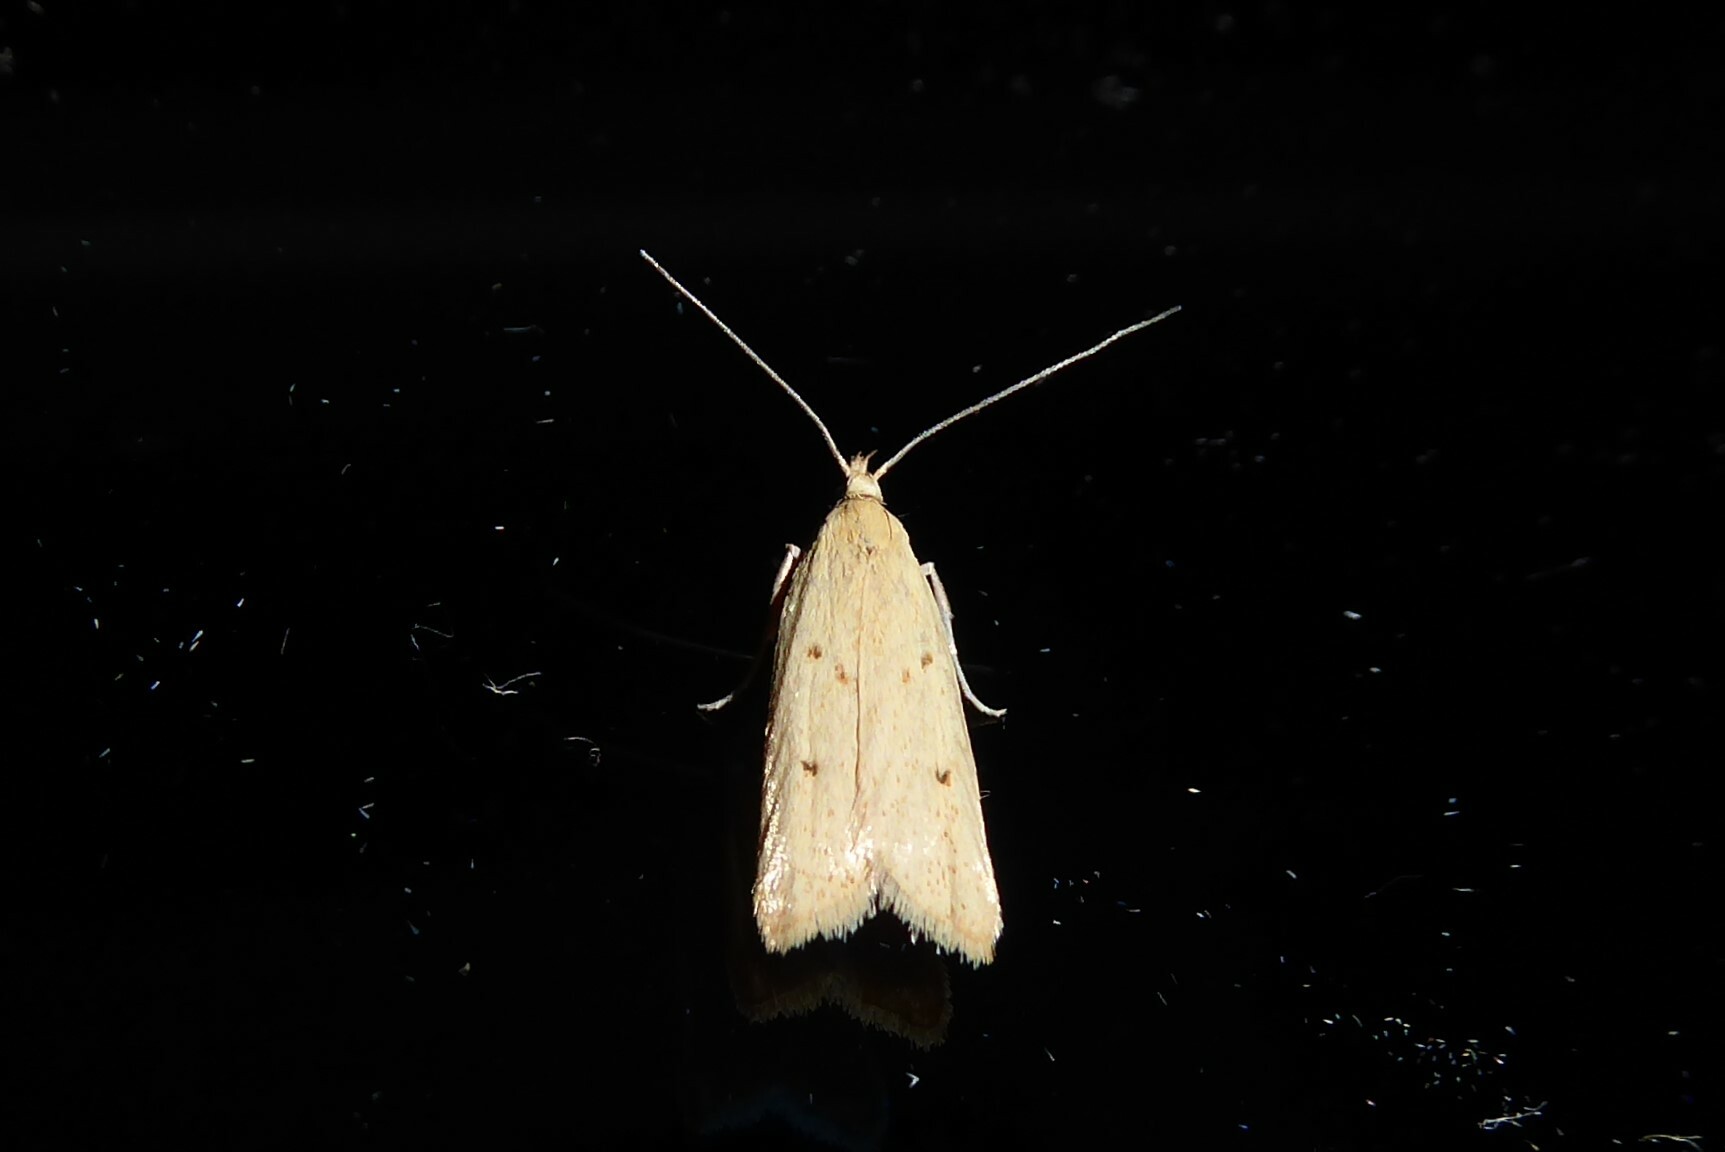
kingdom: Animalia
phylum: Arthropoda
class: Insecta
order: Lepidoptera
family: Oecophoridae
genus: Gymnobathra
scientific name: Gymnobathra sarcoxantha
